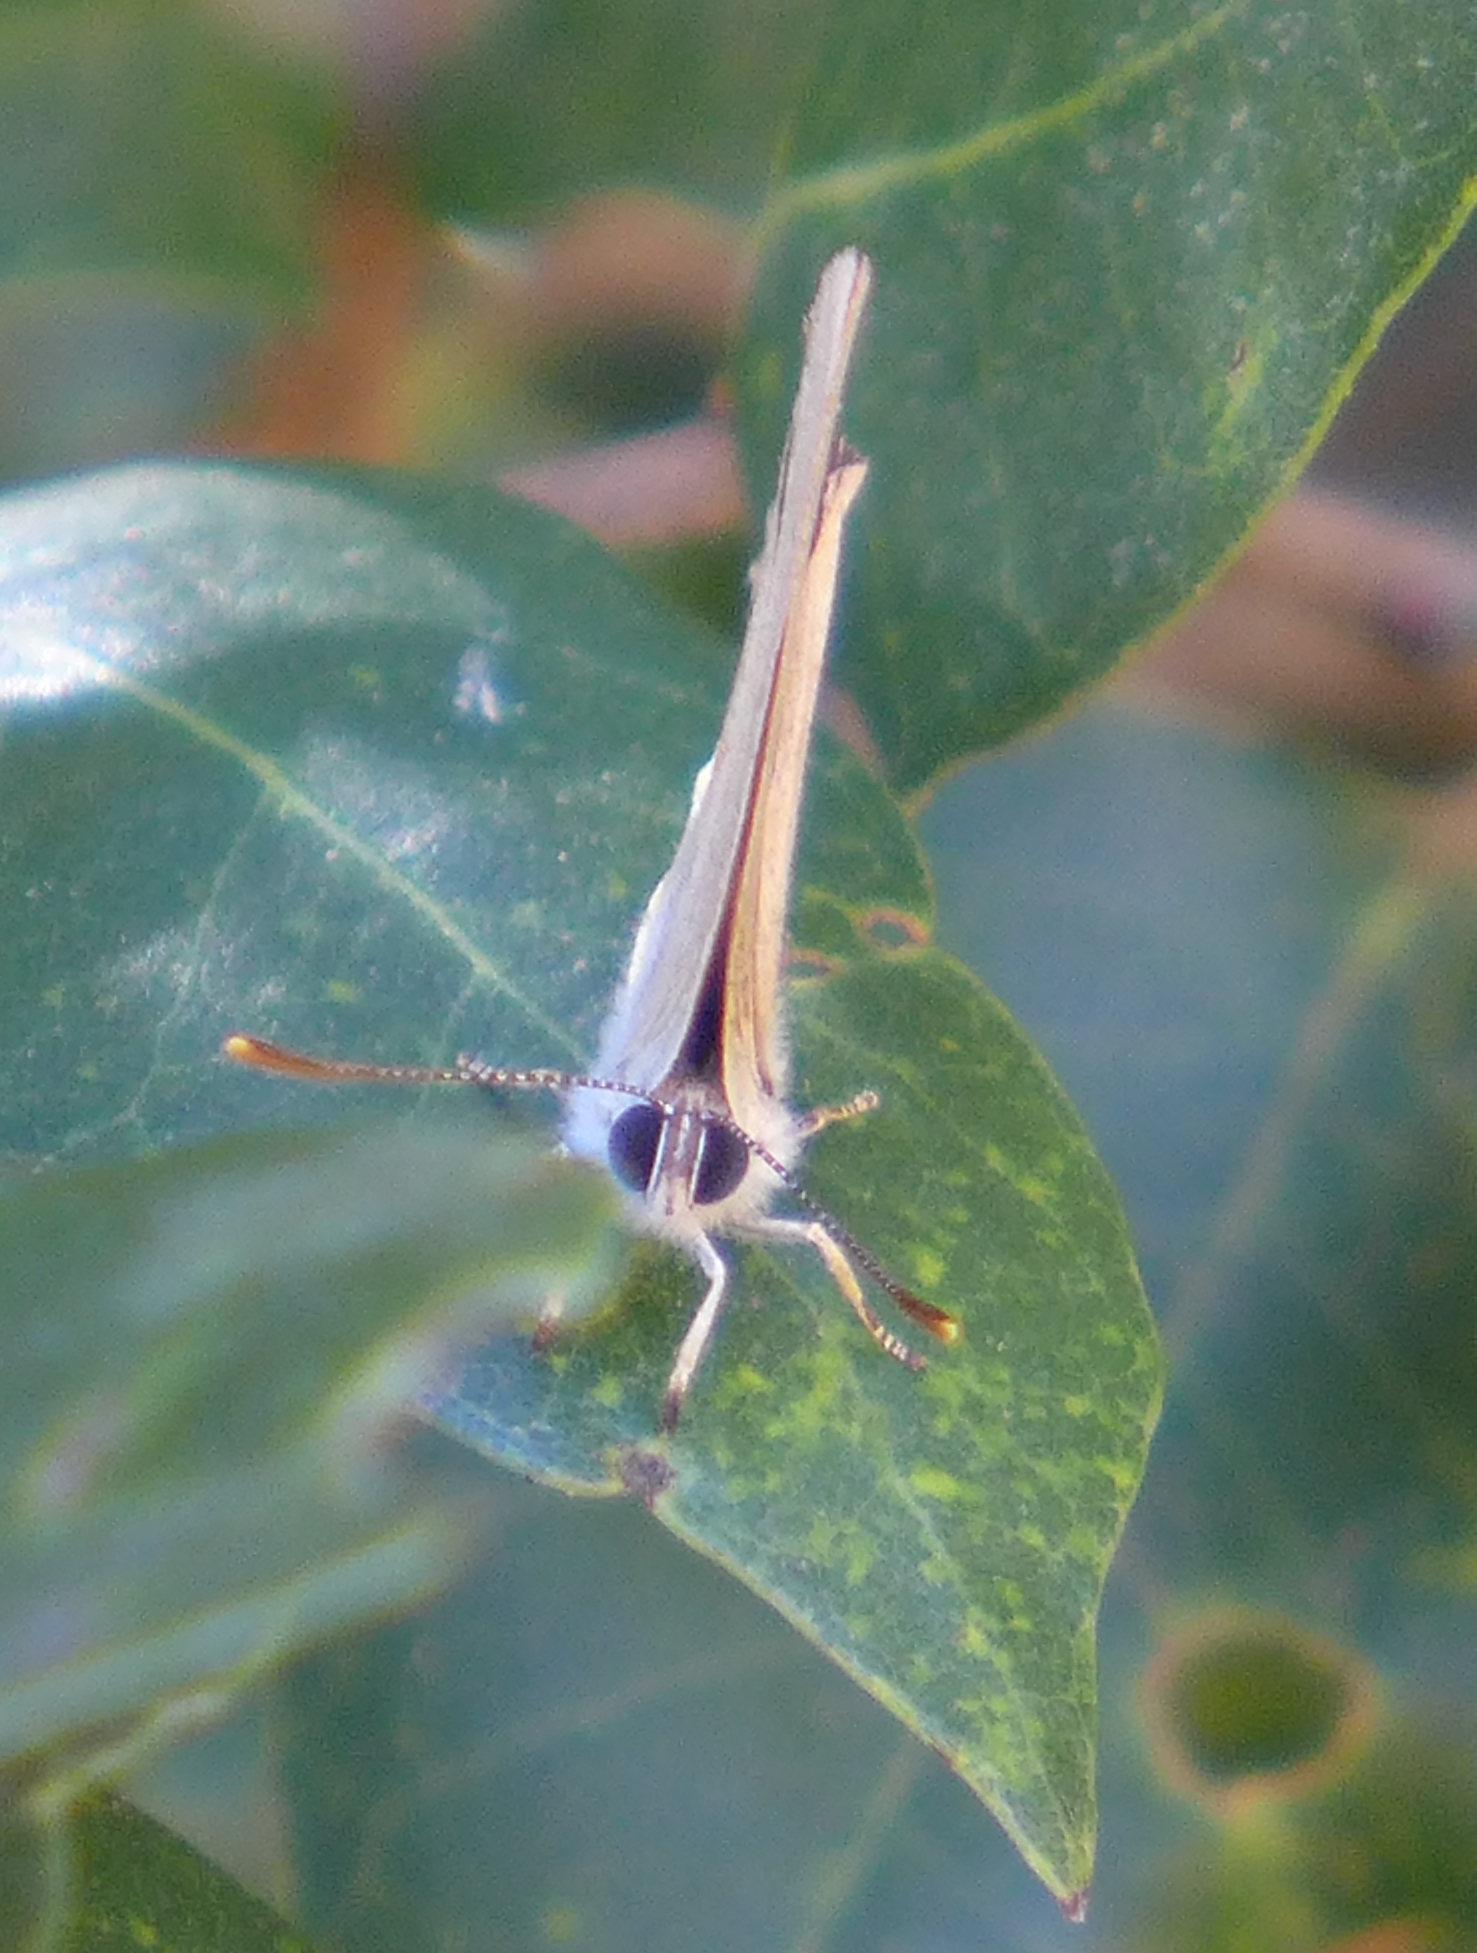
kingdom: Animalia
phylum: Arthropoda
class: Insecta
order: Lepidoptera
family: Lycaenidae
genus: Habrodais
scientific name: Habrodais grunus
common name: Golden hairstreak
